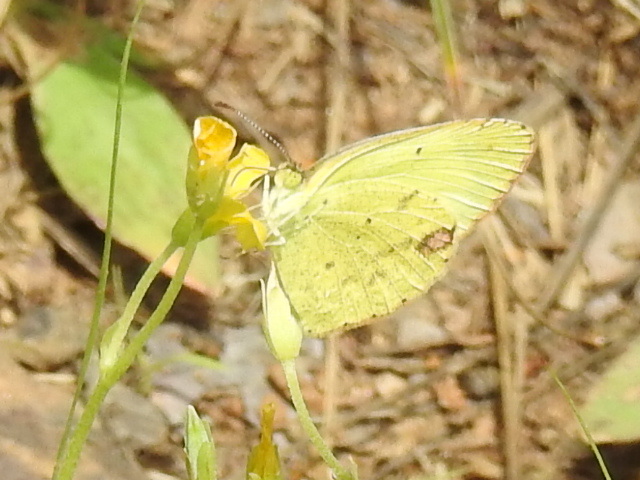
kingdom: Animalia
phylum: Arthropoda
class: Insecta
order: Lepidoptera
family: Pieridae
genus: Pyrisitia
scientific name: Pyrisitia lisa
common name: Little yellow
